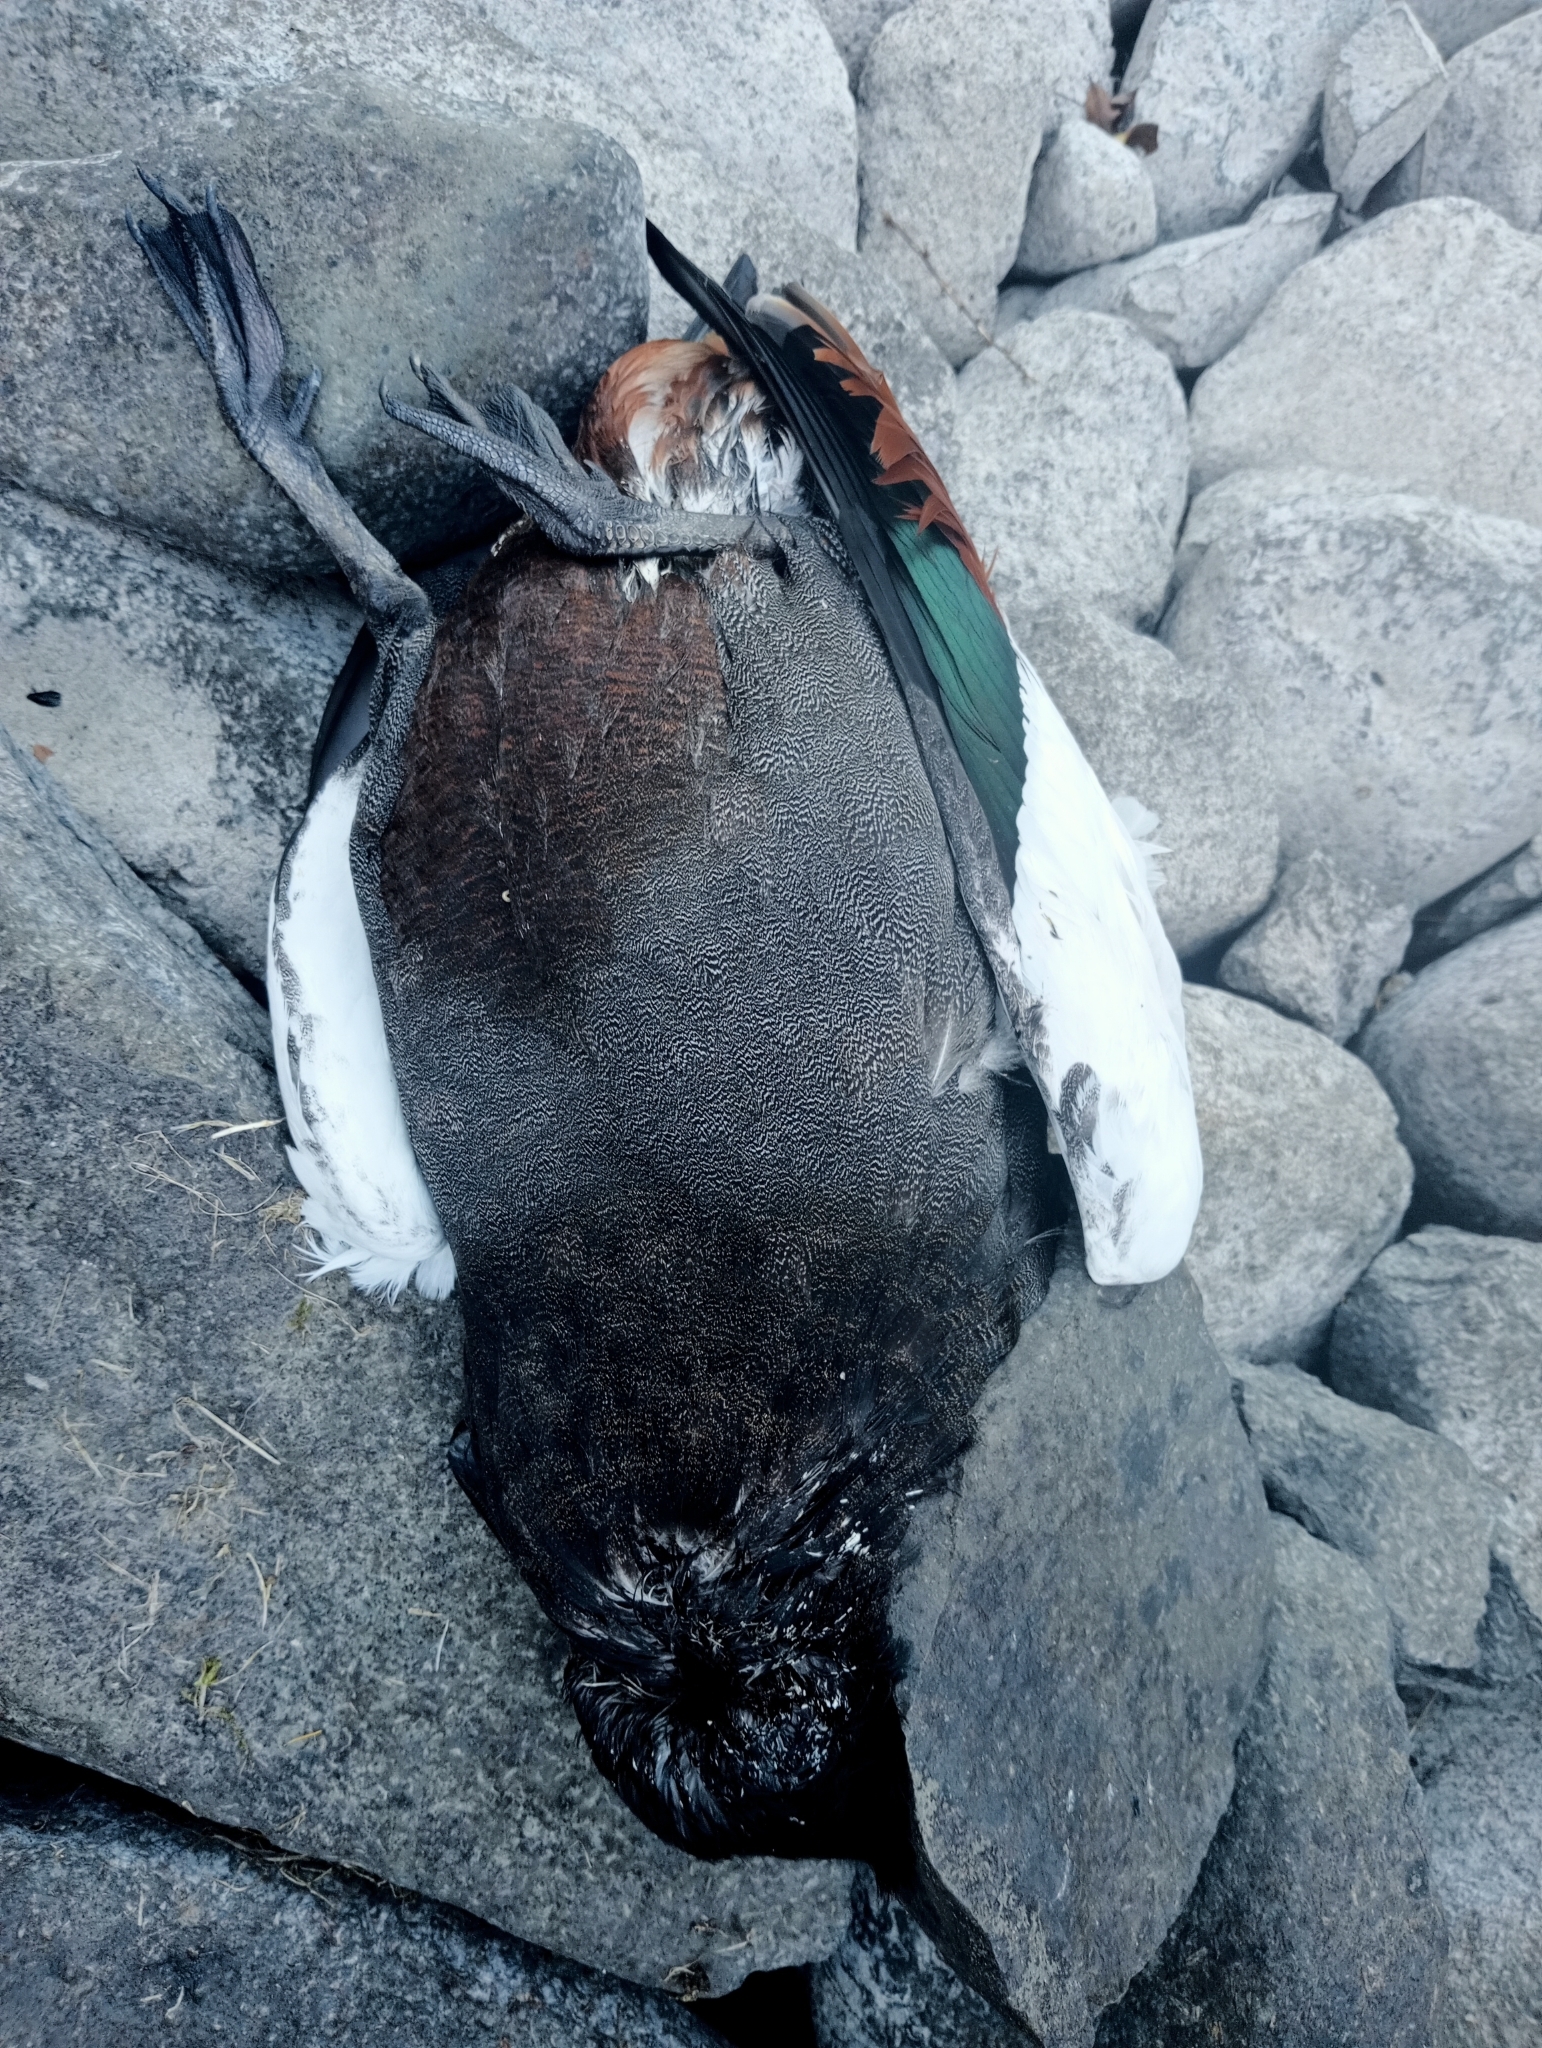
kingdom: Animalia
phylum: Chordata
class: Aves
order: Anseriformes
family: Anatidae
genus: Tadorna
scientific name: Tadorna variegata
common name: Paradise shelduck
